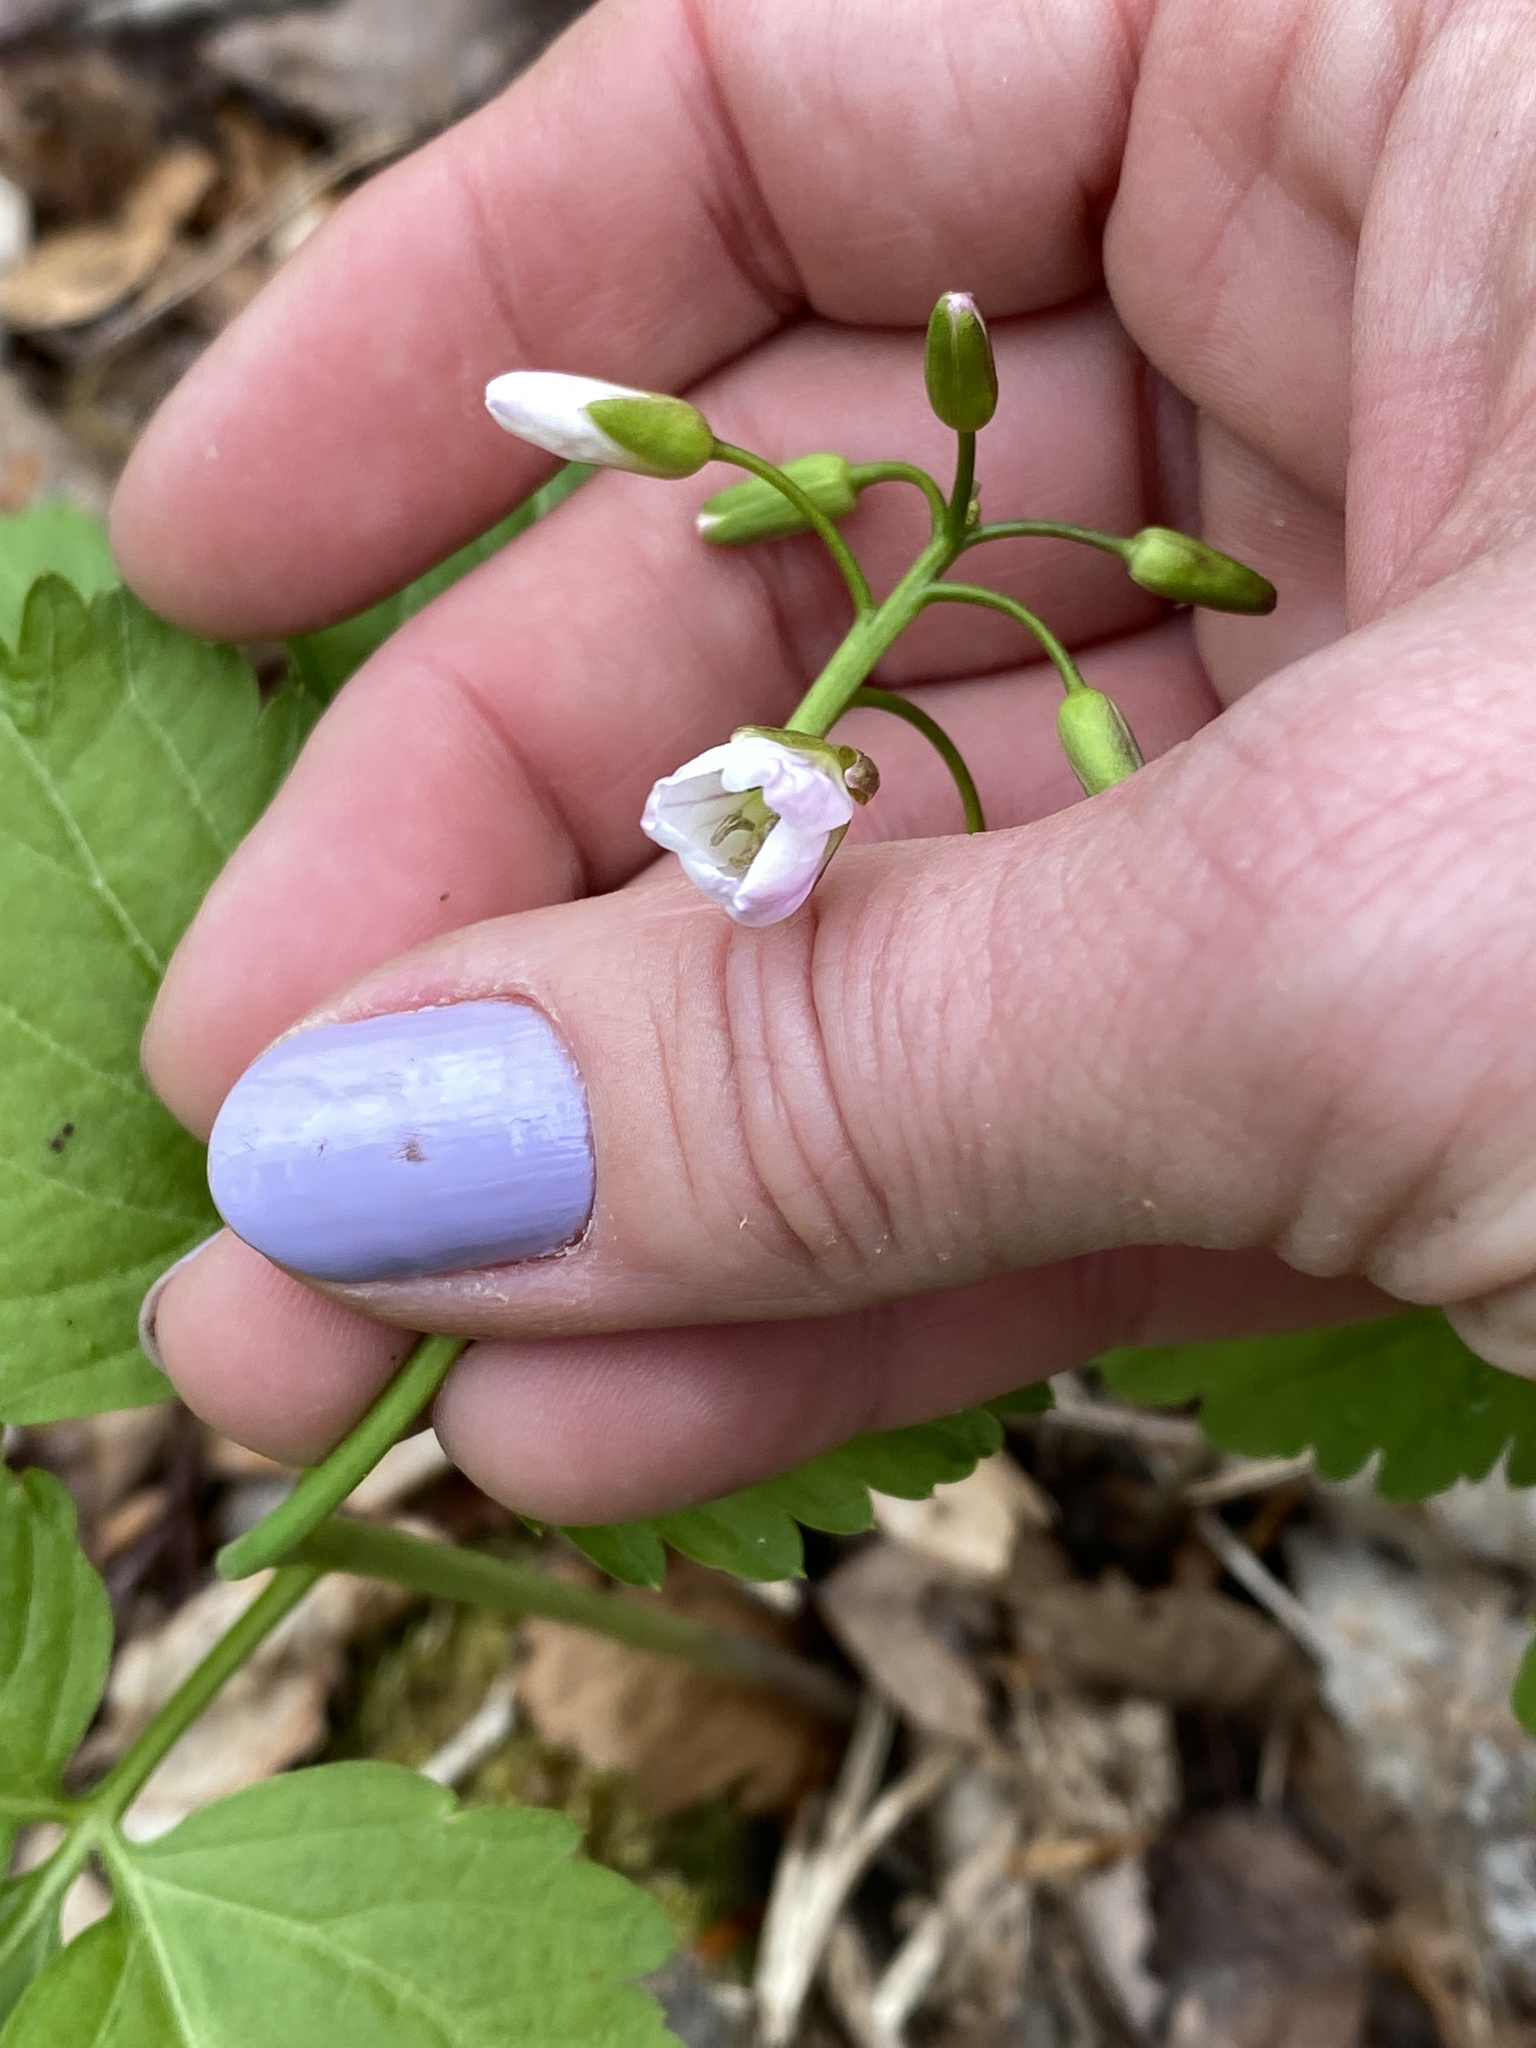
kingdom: Plantae
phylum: Tracheophyta
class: Magnoliopsida
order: Brassicales
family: Brassicaceae
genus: Cardamine
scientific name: Cardamine diphylla
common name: Broad-leaved toothwort
